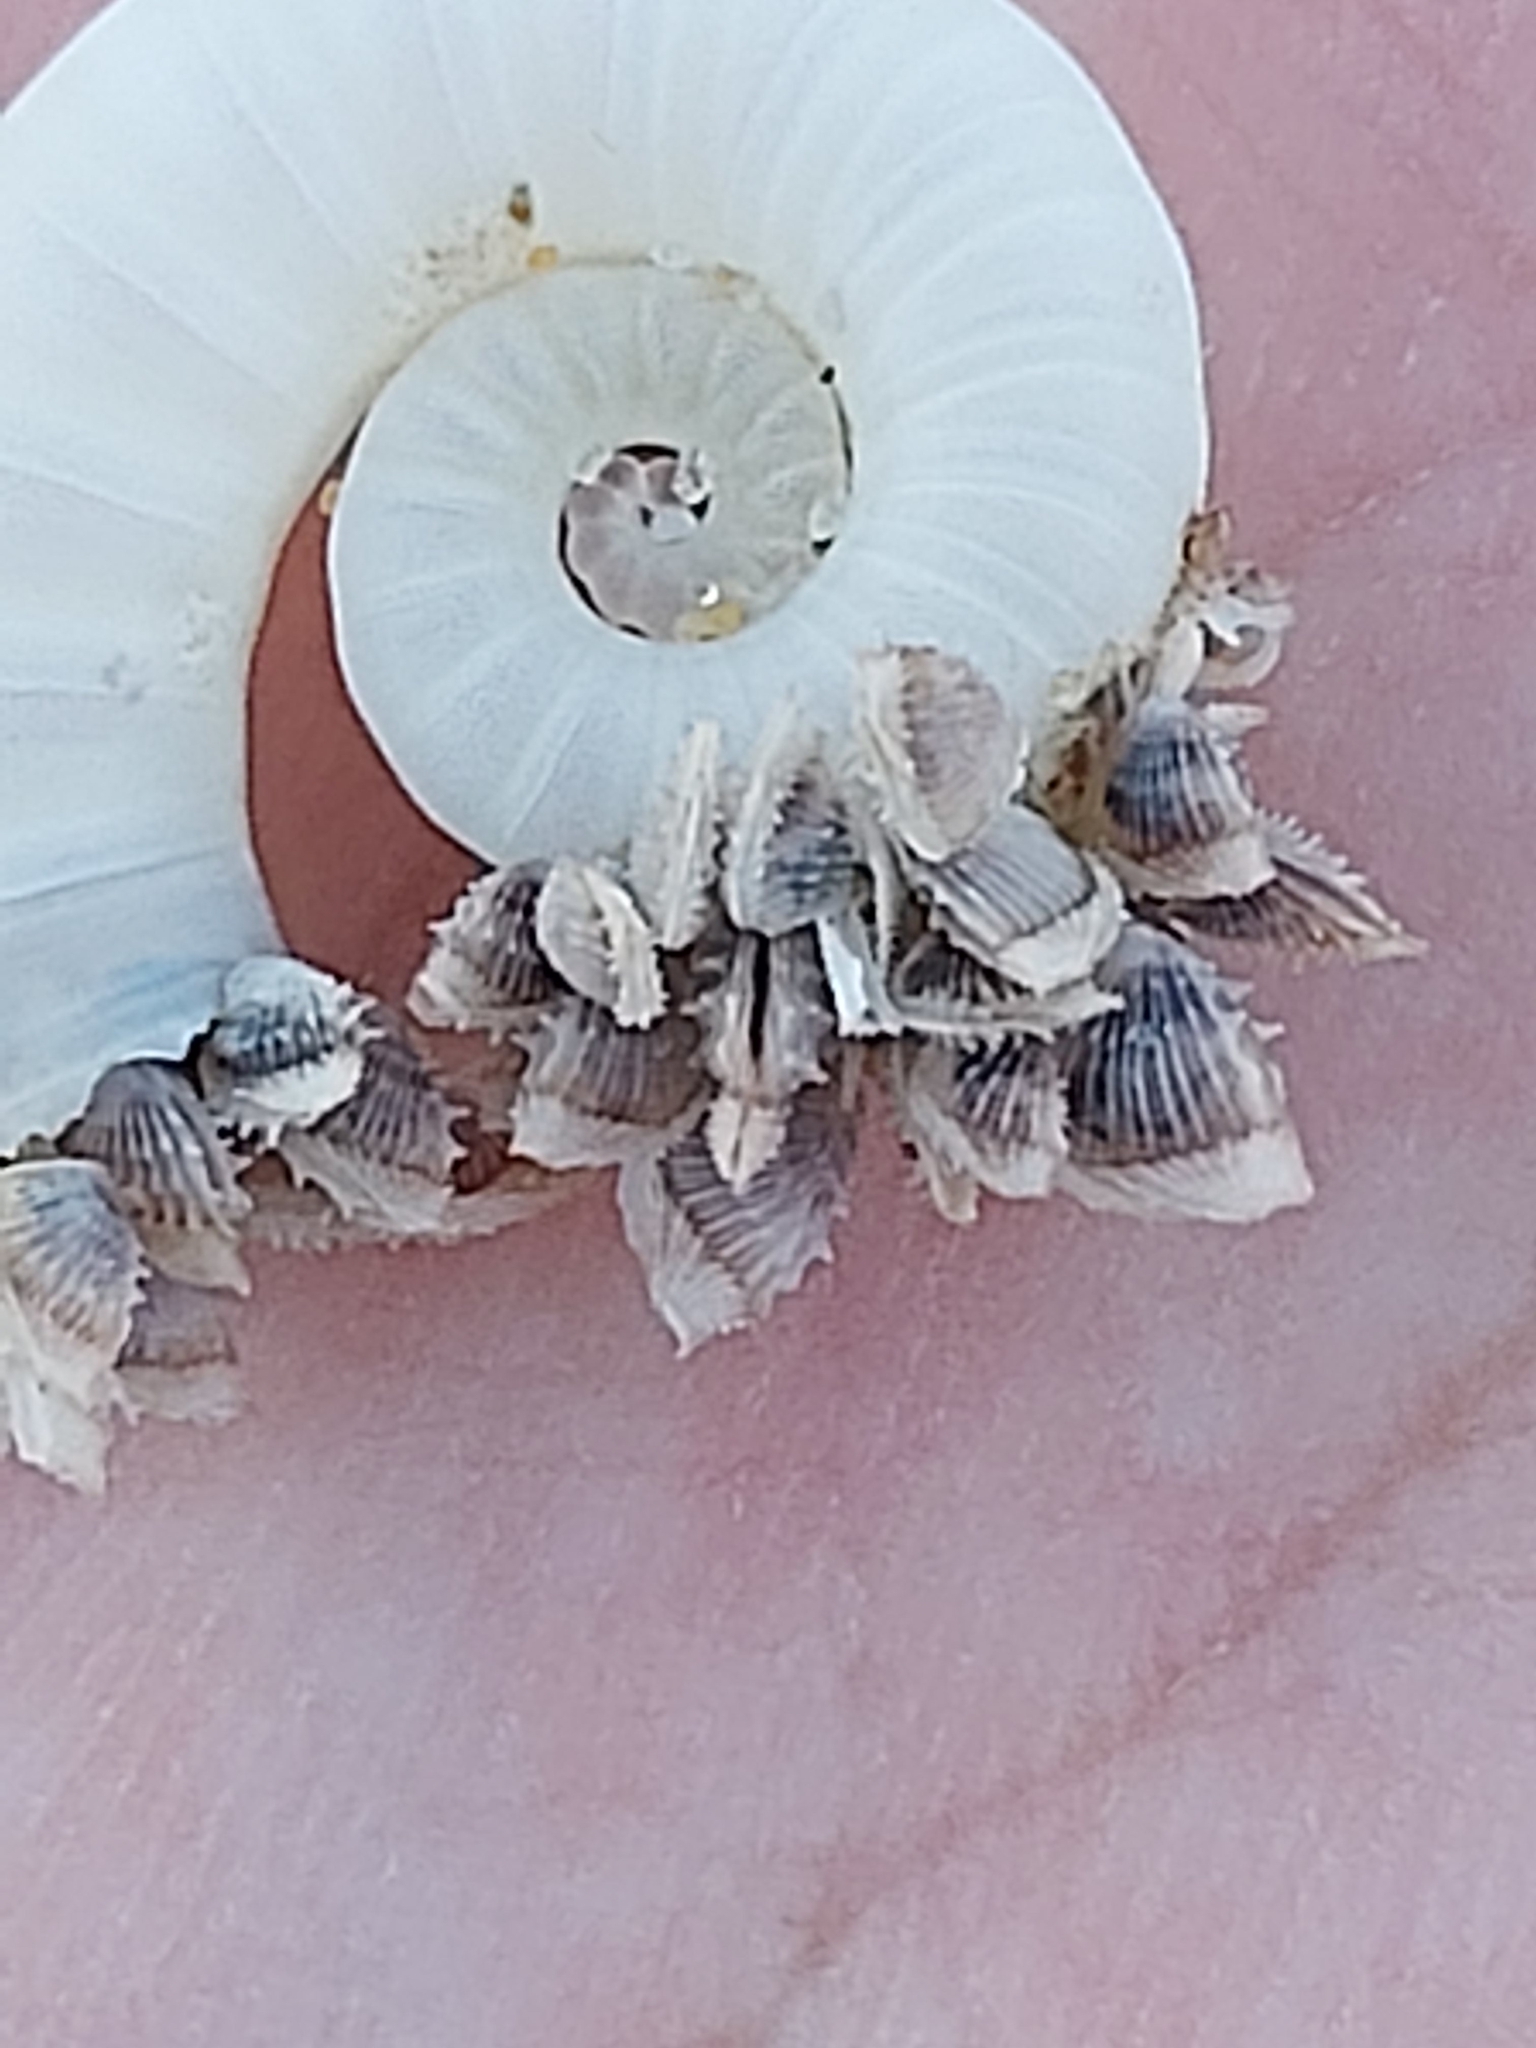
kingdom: Animalia
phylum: Arthropoda
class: Maxillopoda
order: Pedunculata
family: Lepadidae
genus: Lepas
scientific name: Lepas pectinata
